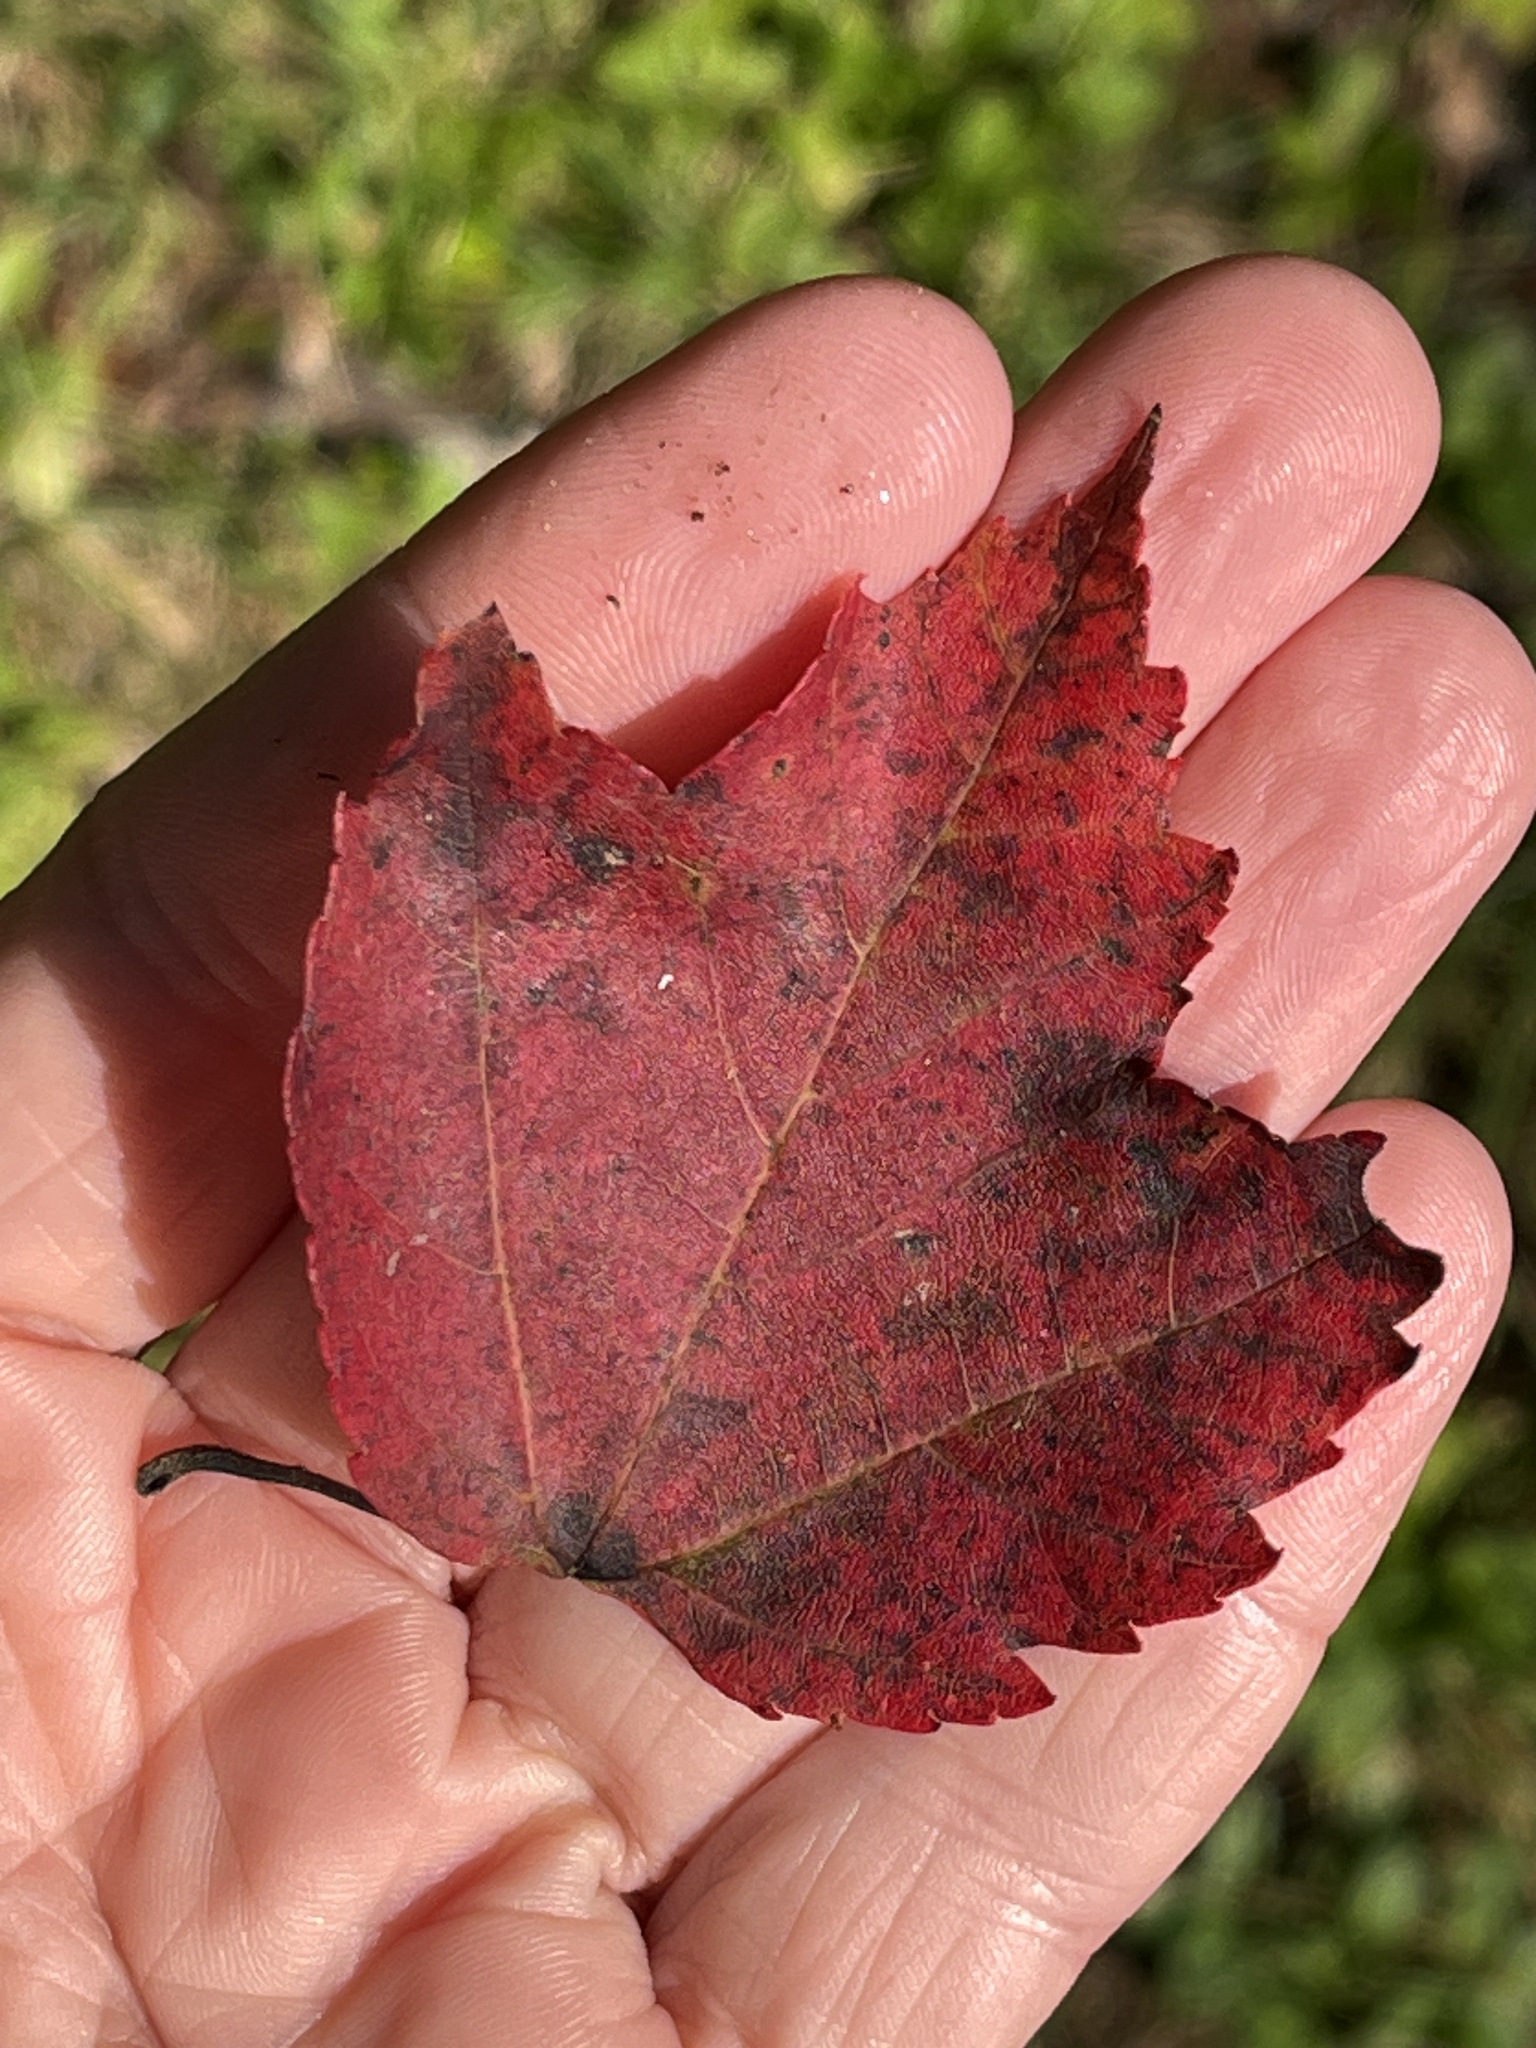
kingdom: Plantae
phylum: Tracheophyta
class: Magnoliopsida
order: Sapindales
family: Sapindaceae
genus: Acer
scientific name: Acer rubrum
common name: Red maple
